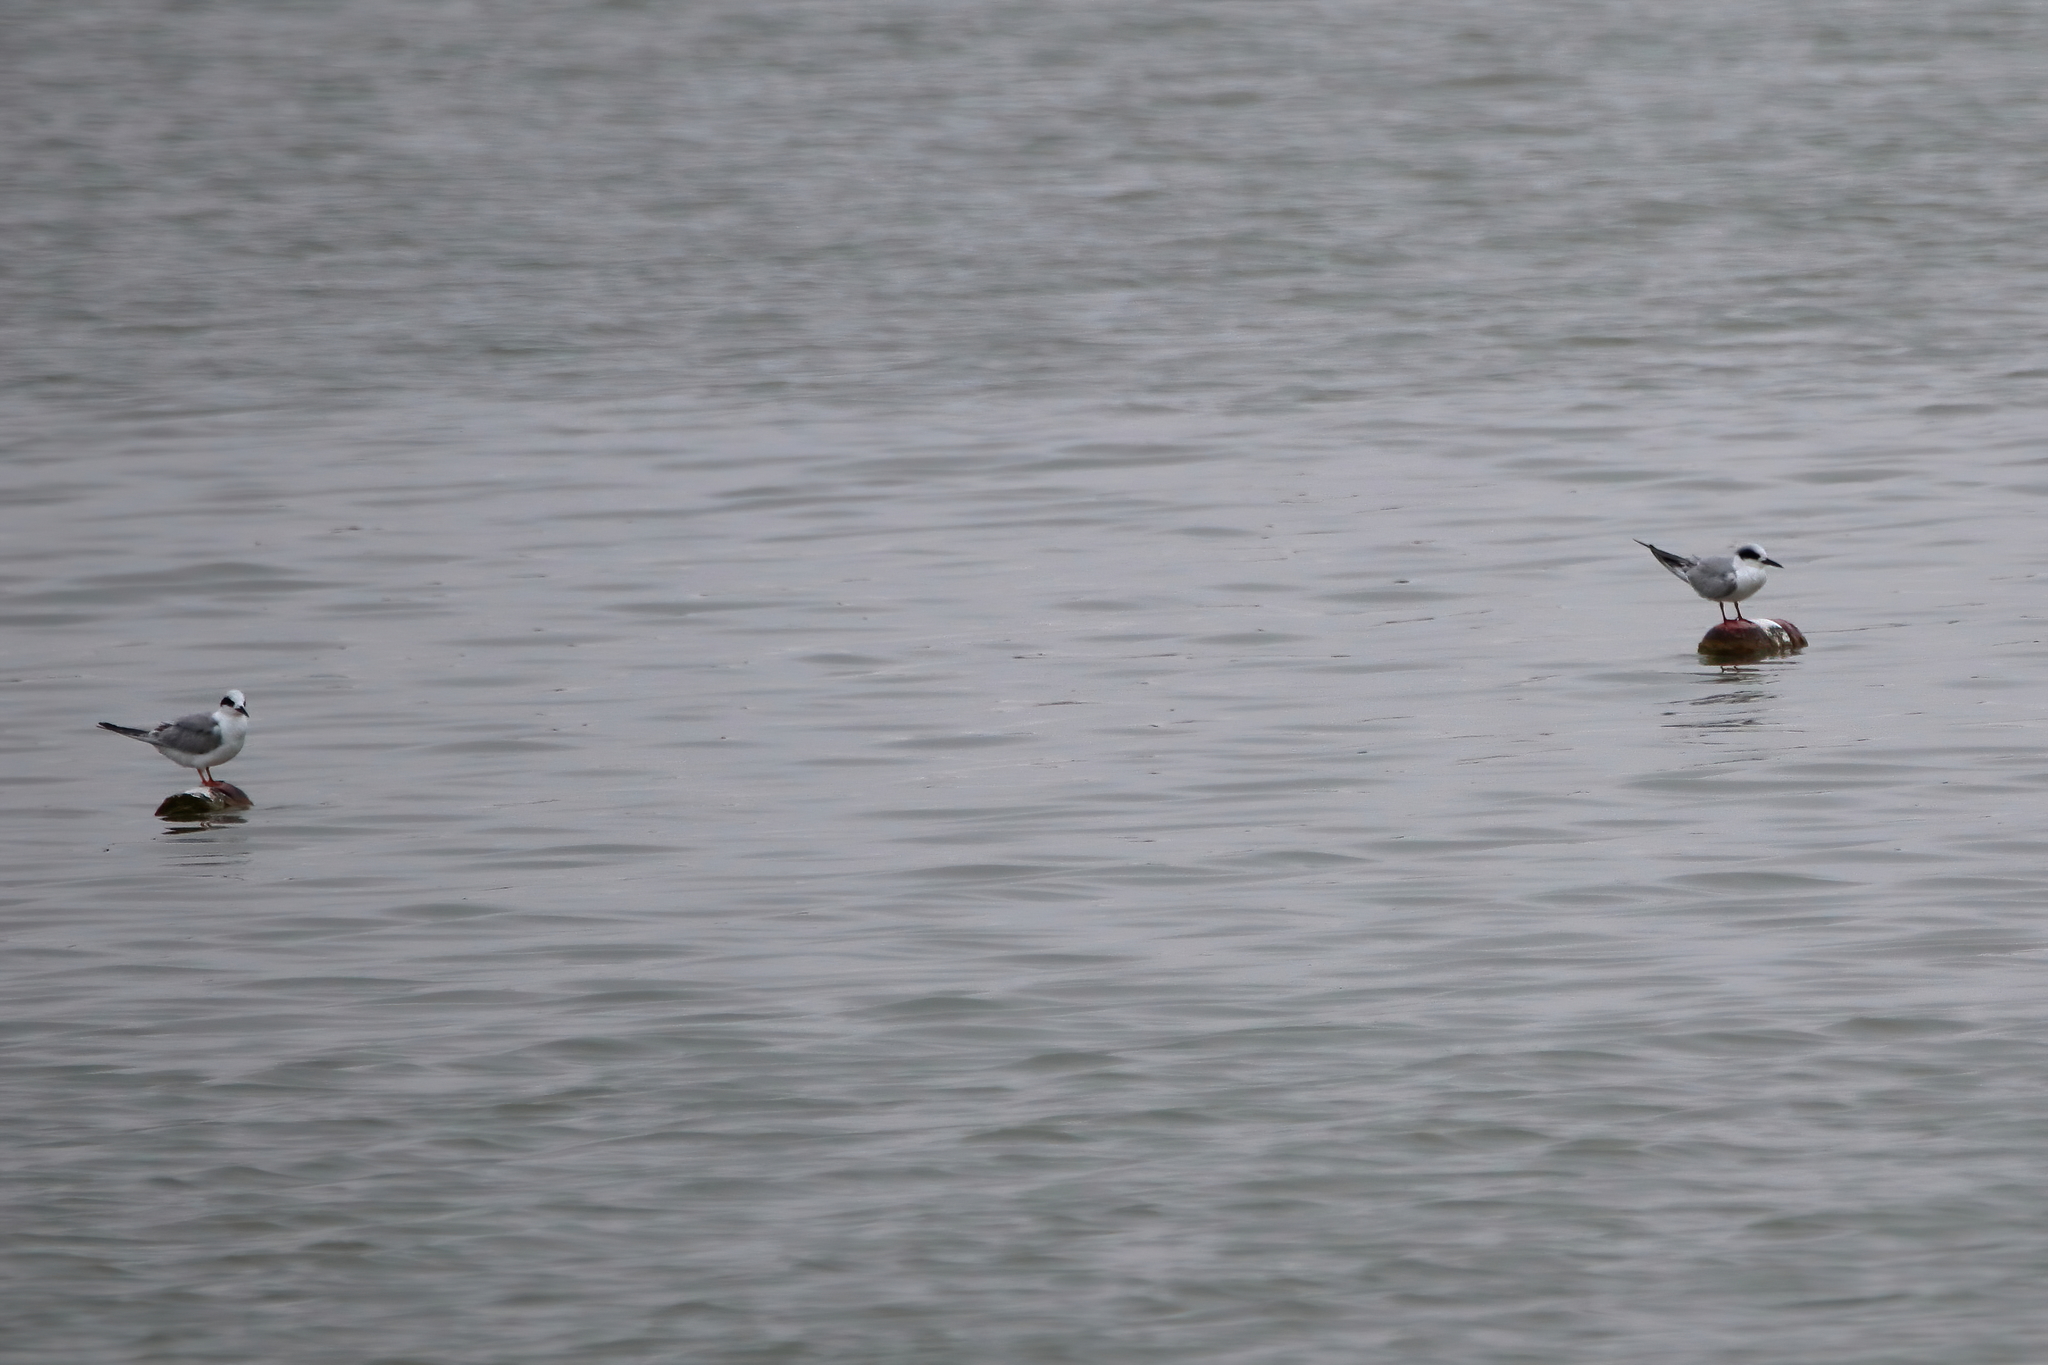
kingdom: Animalia
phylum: Chordata
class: Aves
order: Charadriiformes
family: Laridae
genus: Sterna
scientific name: Sterna forsteri
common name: Forster's tern
